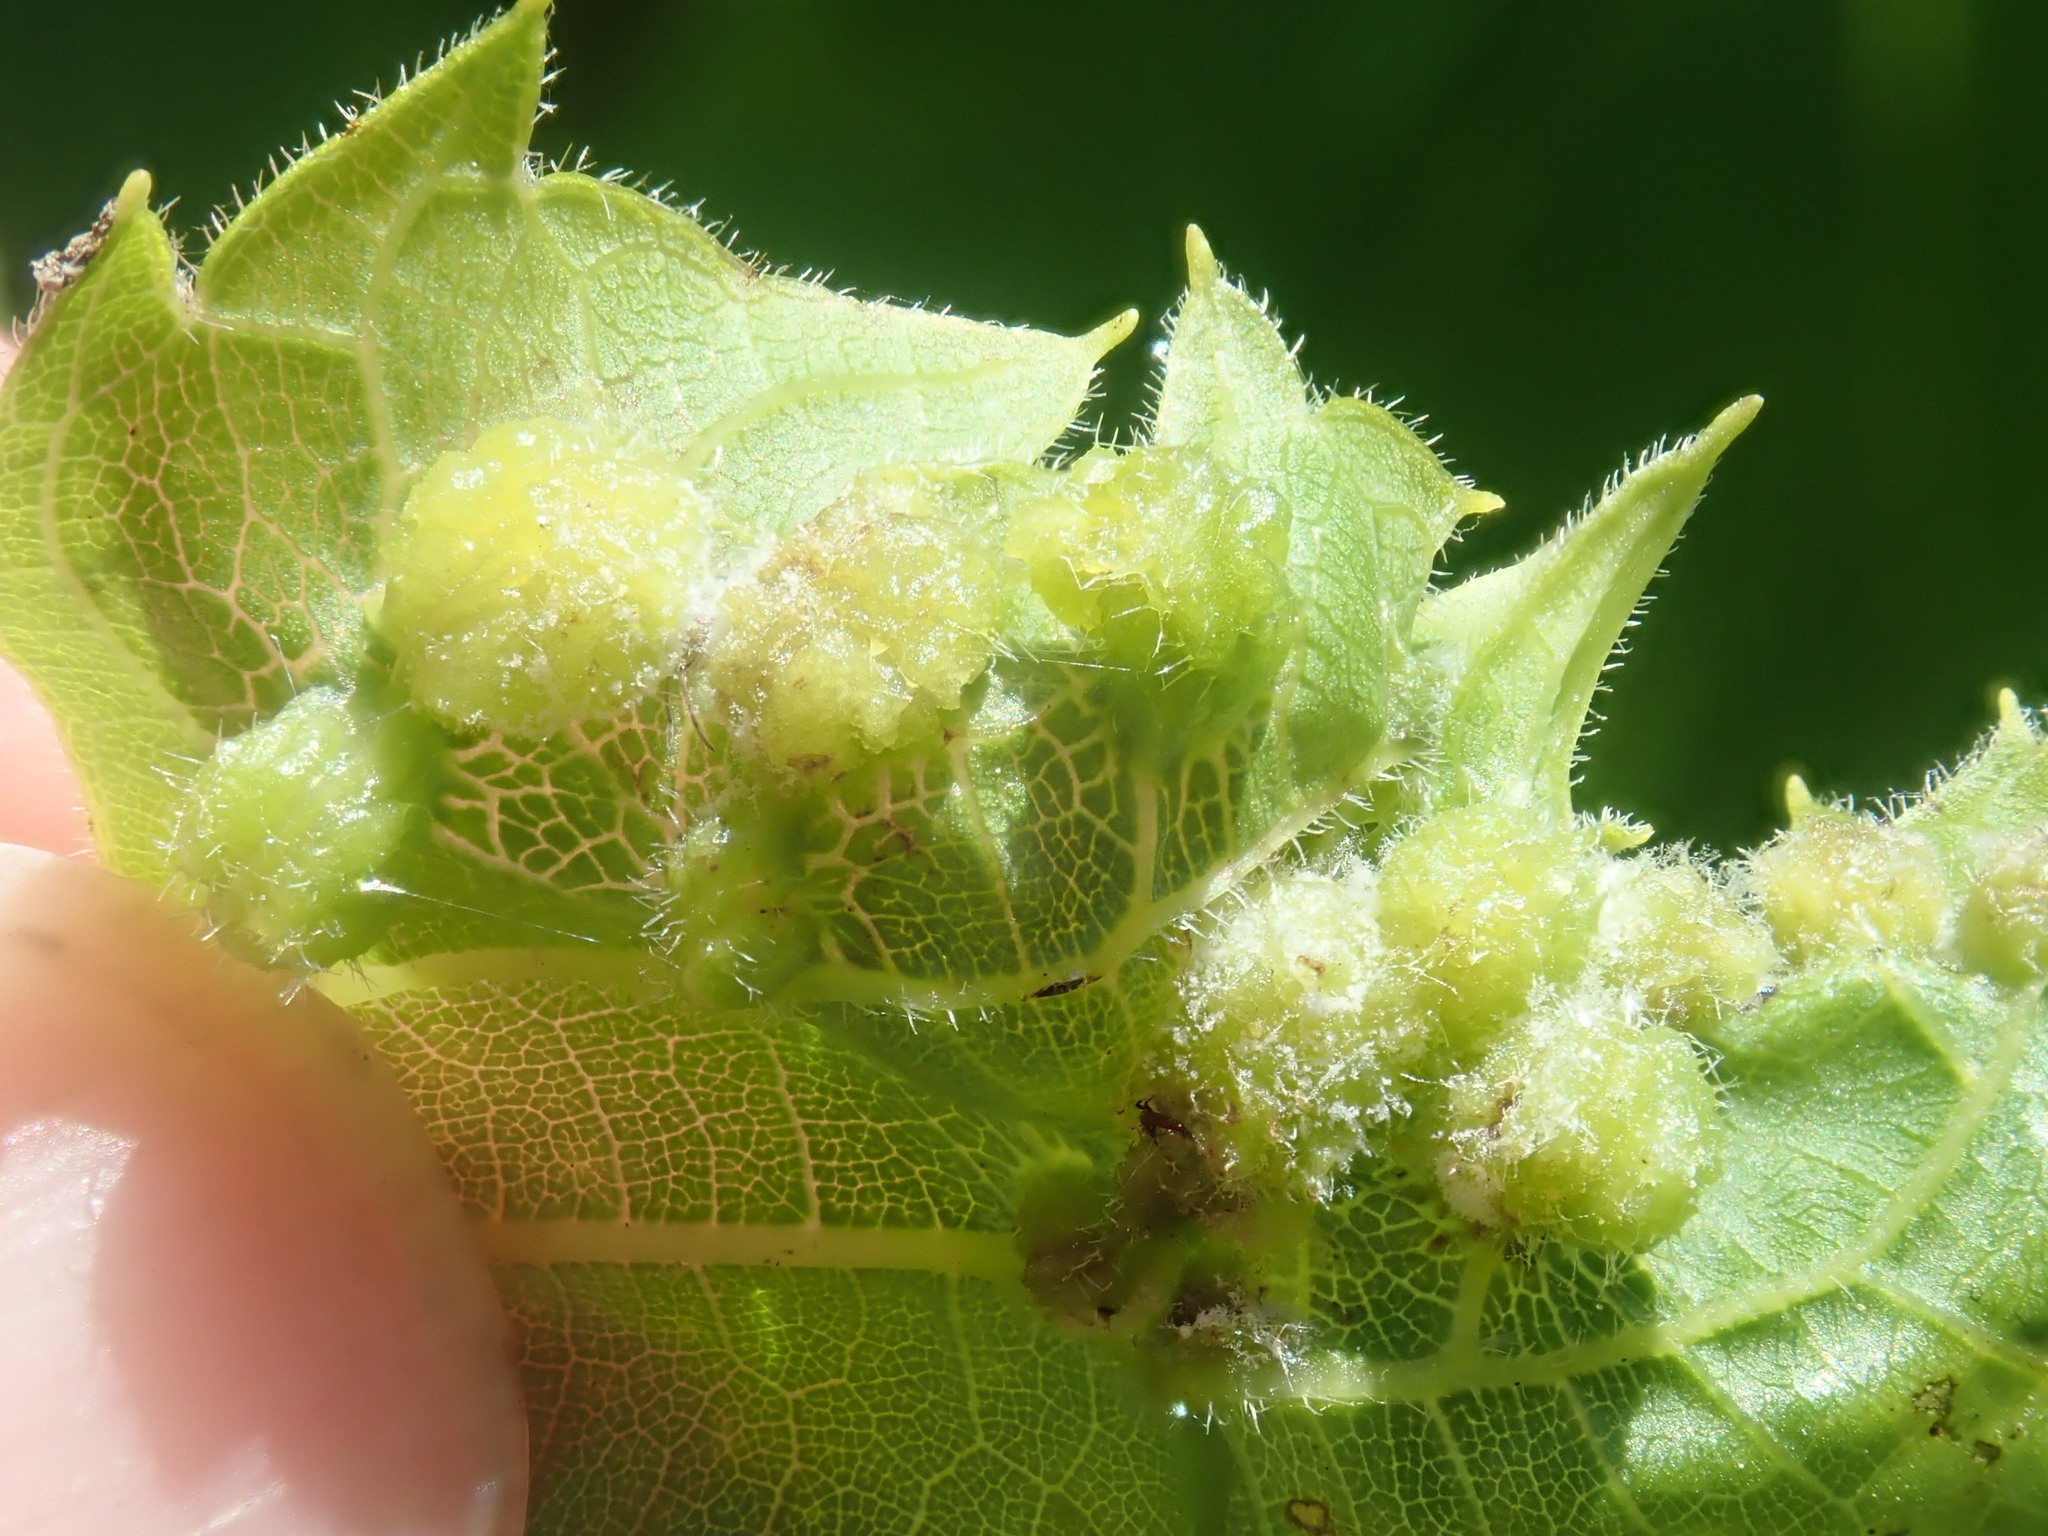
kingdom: Animalia
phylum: Arthropoda
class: Insecta
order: Hemiptera
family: Phylloxeridae
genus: Daktulosphaira
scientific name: Daktulosphaira vitifoliae
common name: Grape phylloxera
